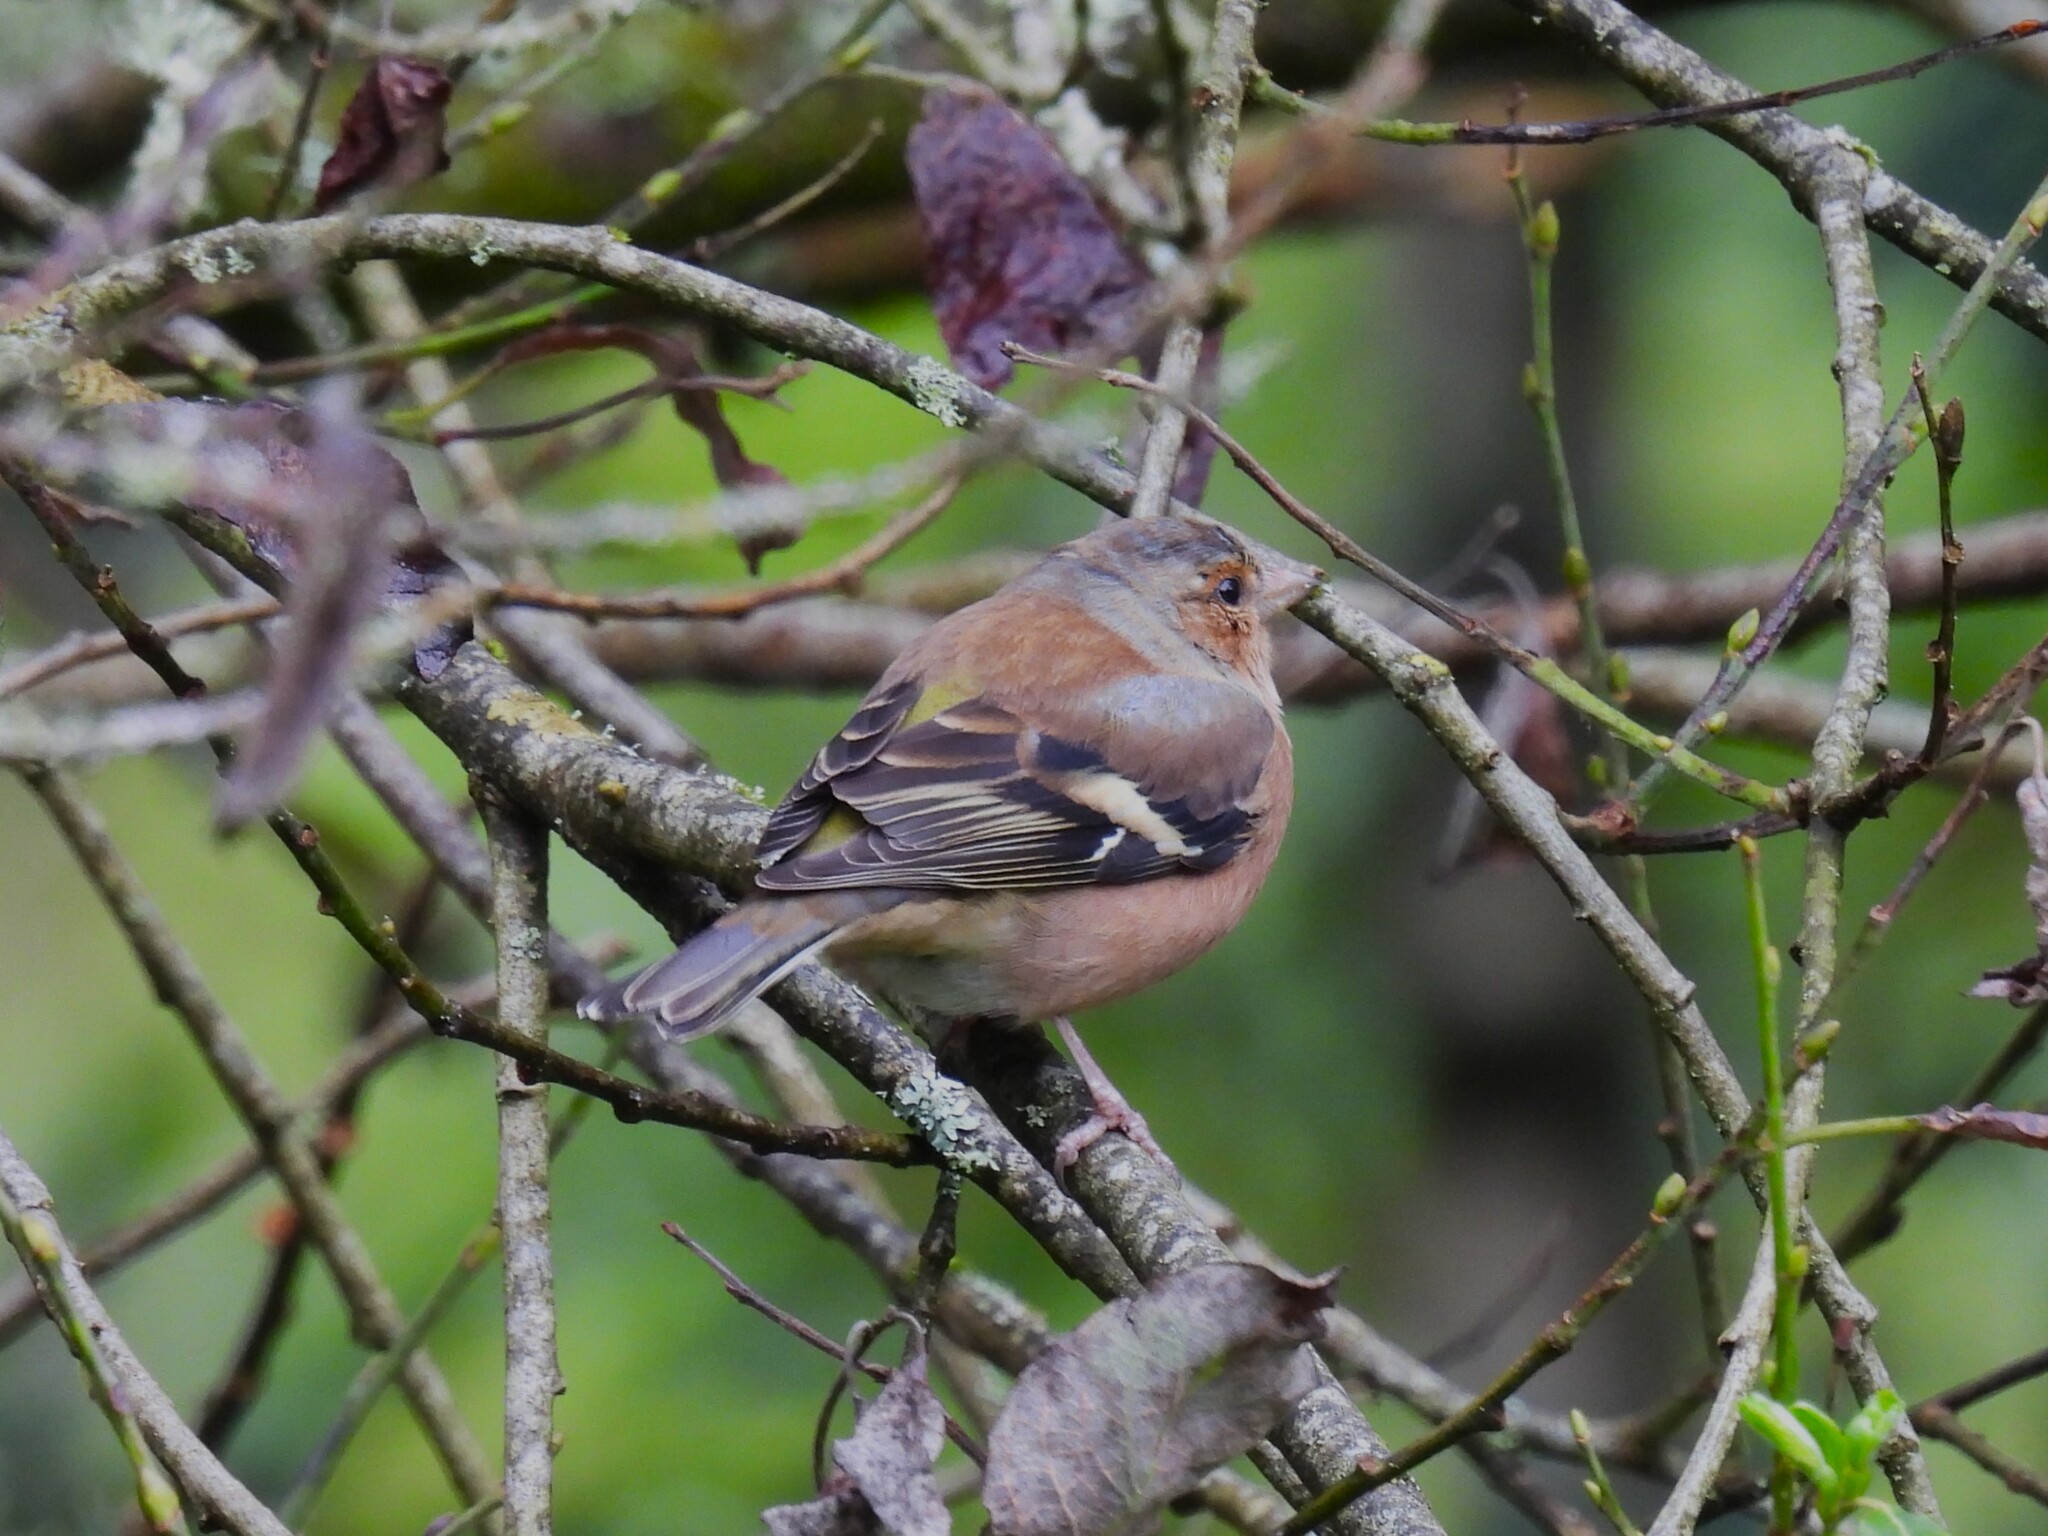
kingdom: Animalia
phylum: Chordata
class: Aves
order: Passeriformes
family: Fringillidae
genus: Fringilla
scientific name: Fringilla coelebs
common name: Common chaffinch
